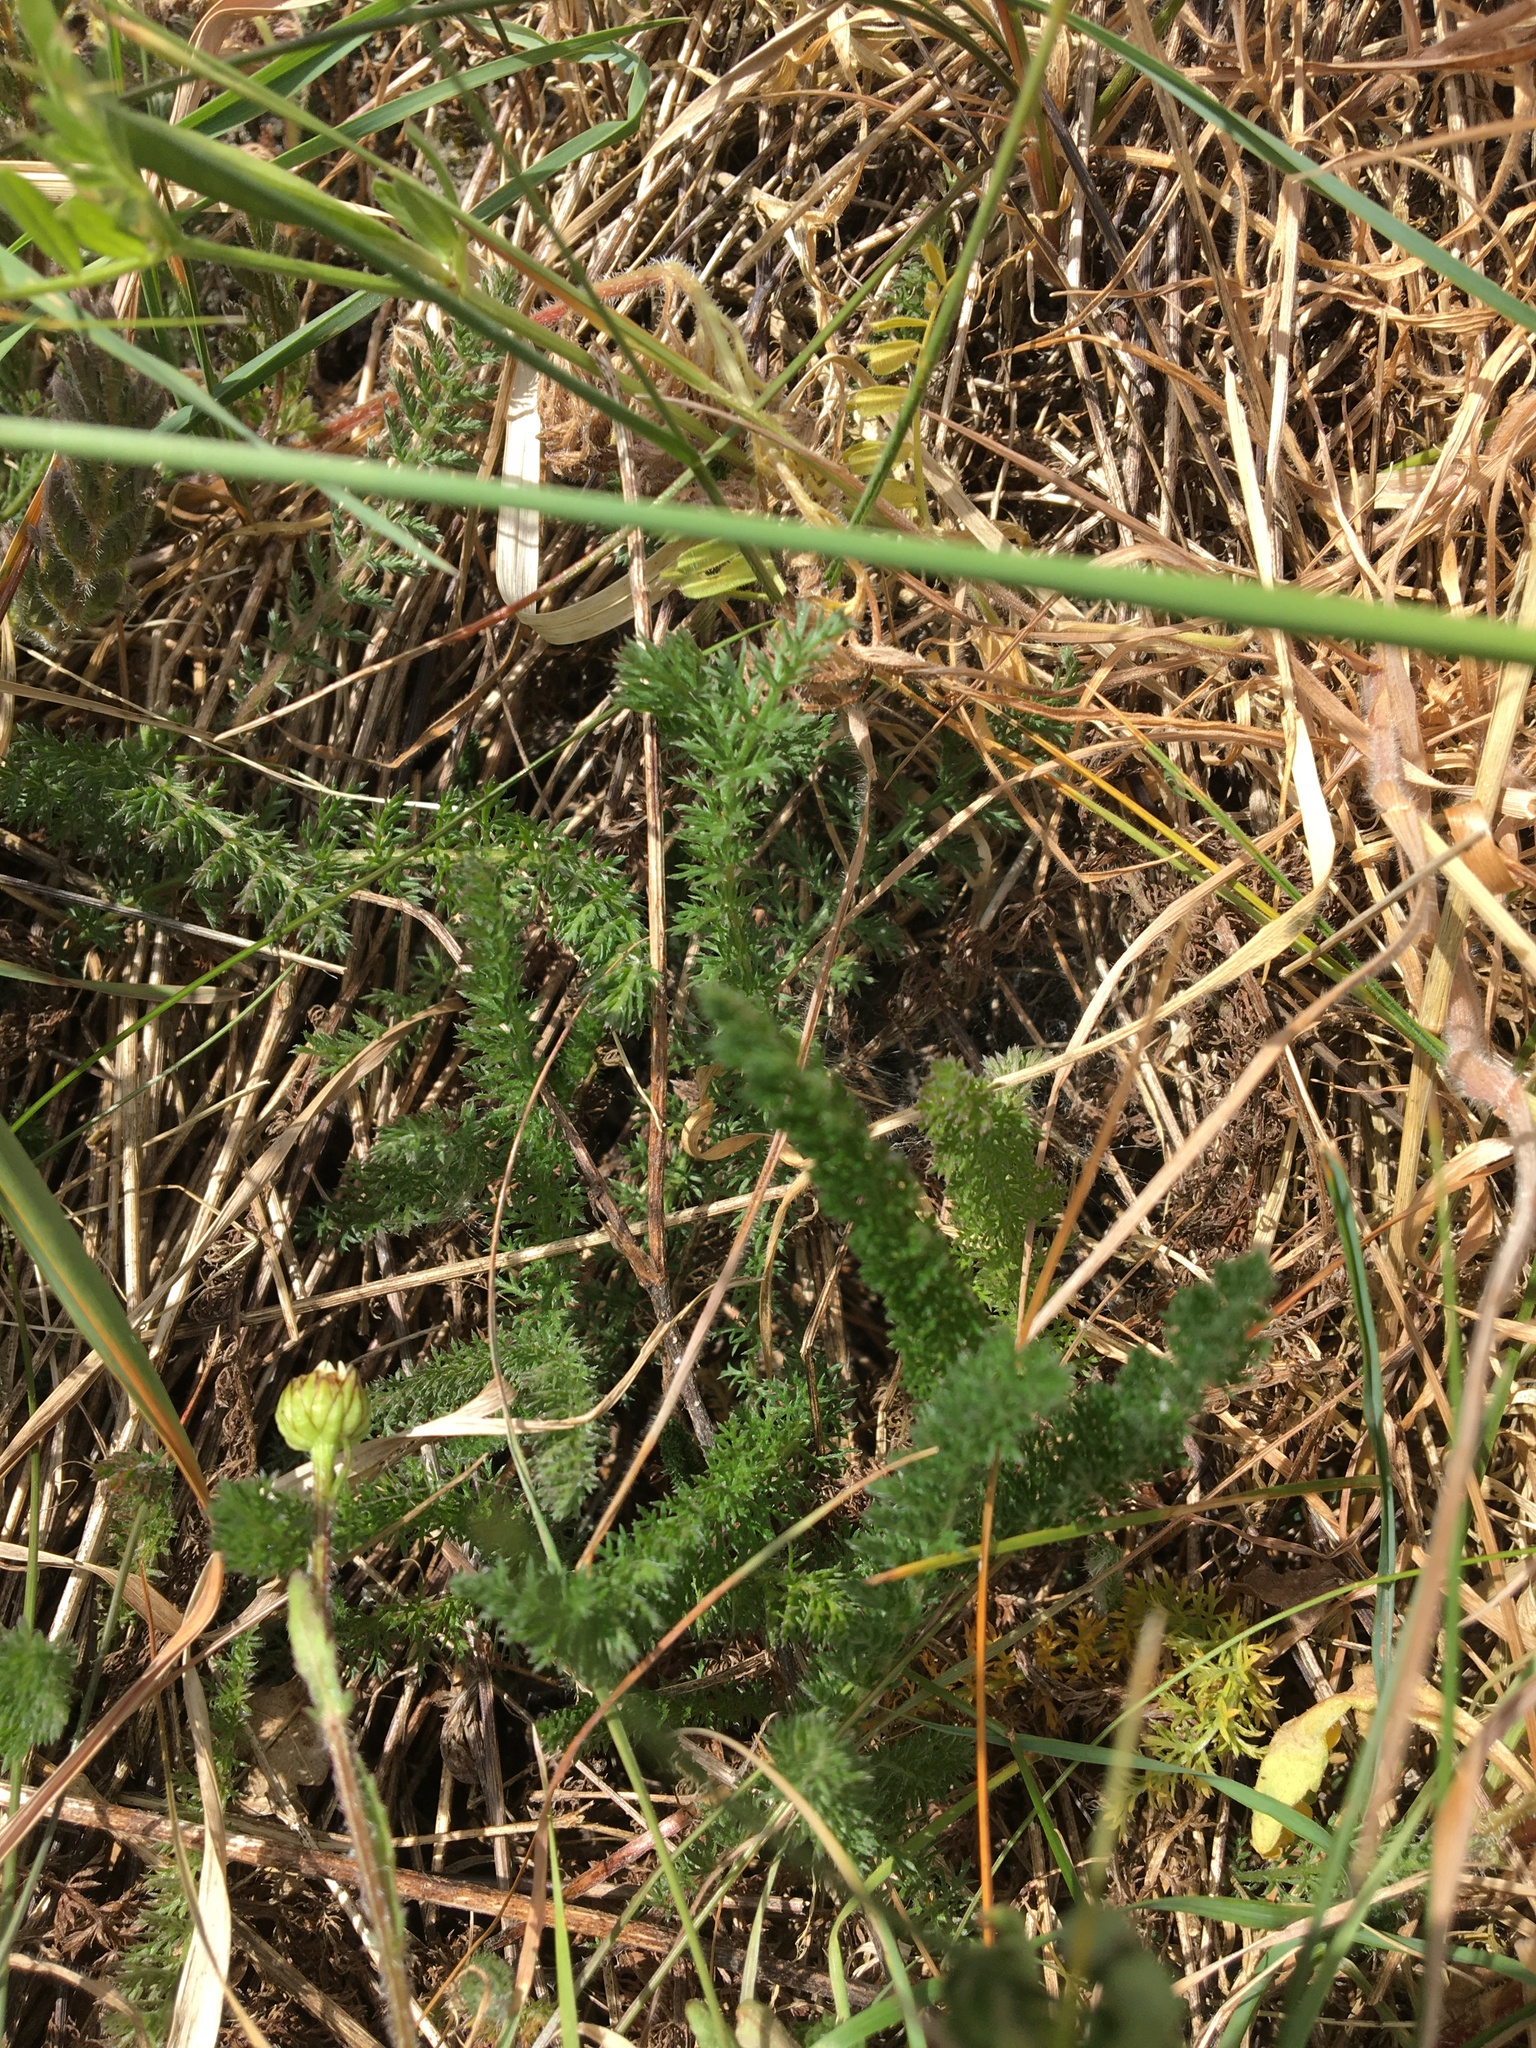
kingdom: Plantae
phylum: Tracheophyta
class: Magnoliopsida
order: Asterales
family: Asteraceae
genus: Achillea
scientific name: Achillea millefolium
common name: Yarrow
